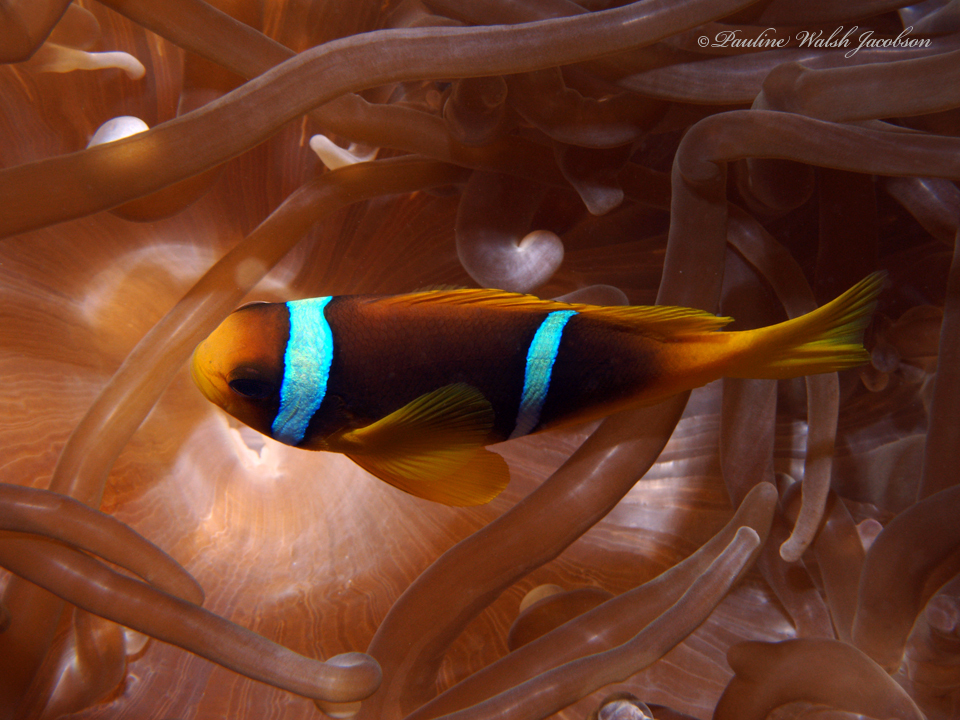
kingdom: Animalia
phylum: Chordata
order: Perciformes
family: Pomacentridae
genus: Amphiprion
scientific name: Amphiprion bicinctus
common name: Two-banded anemonefish
